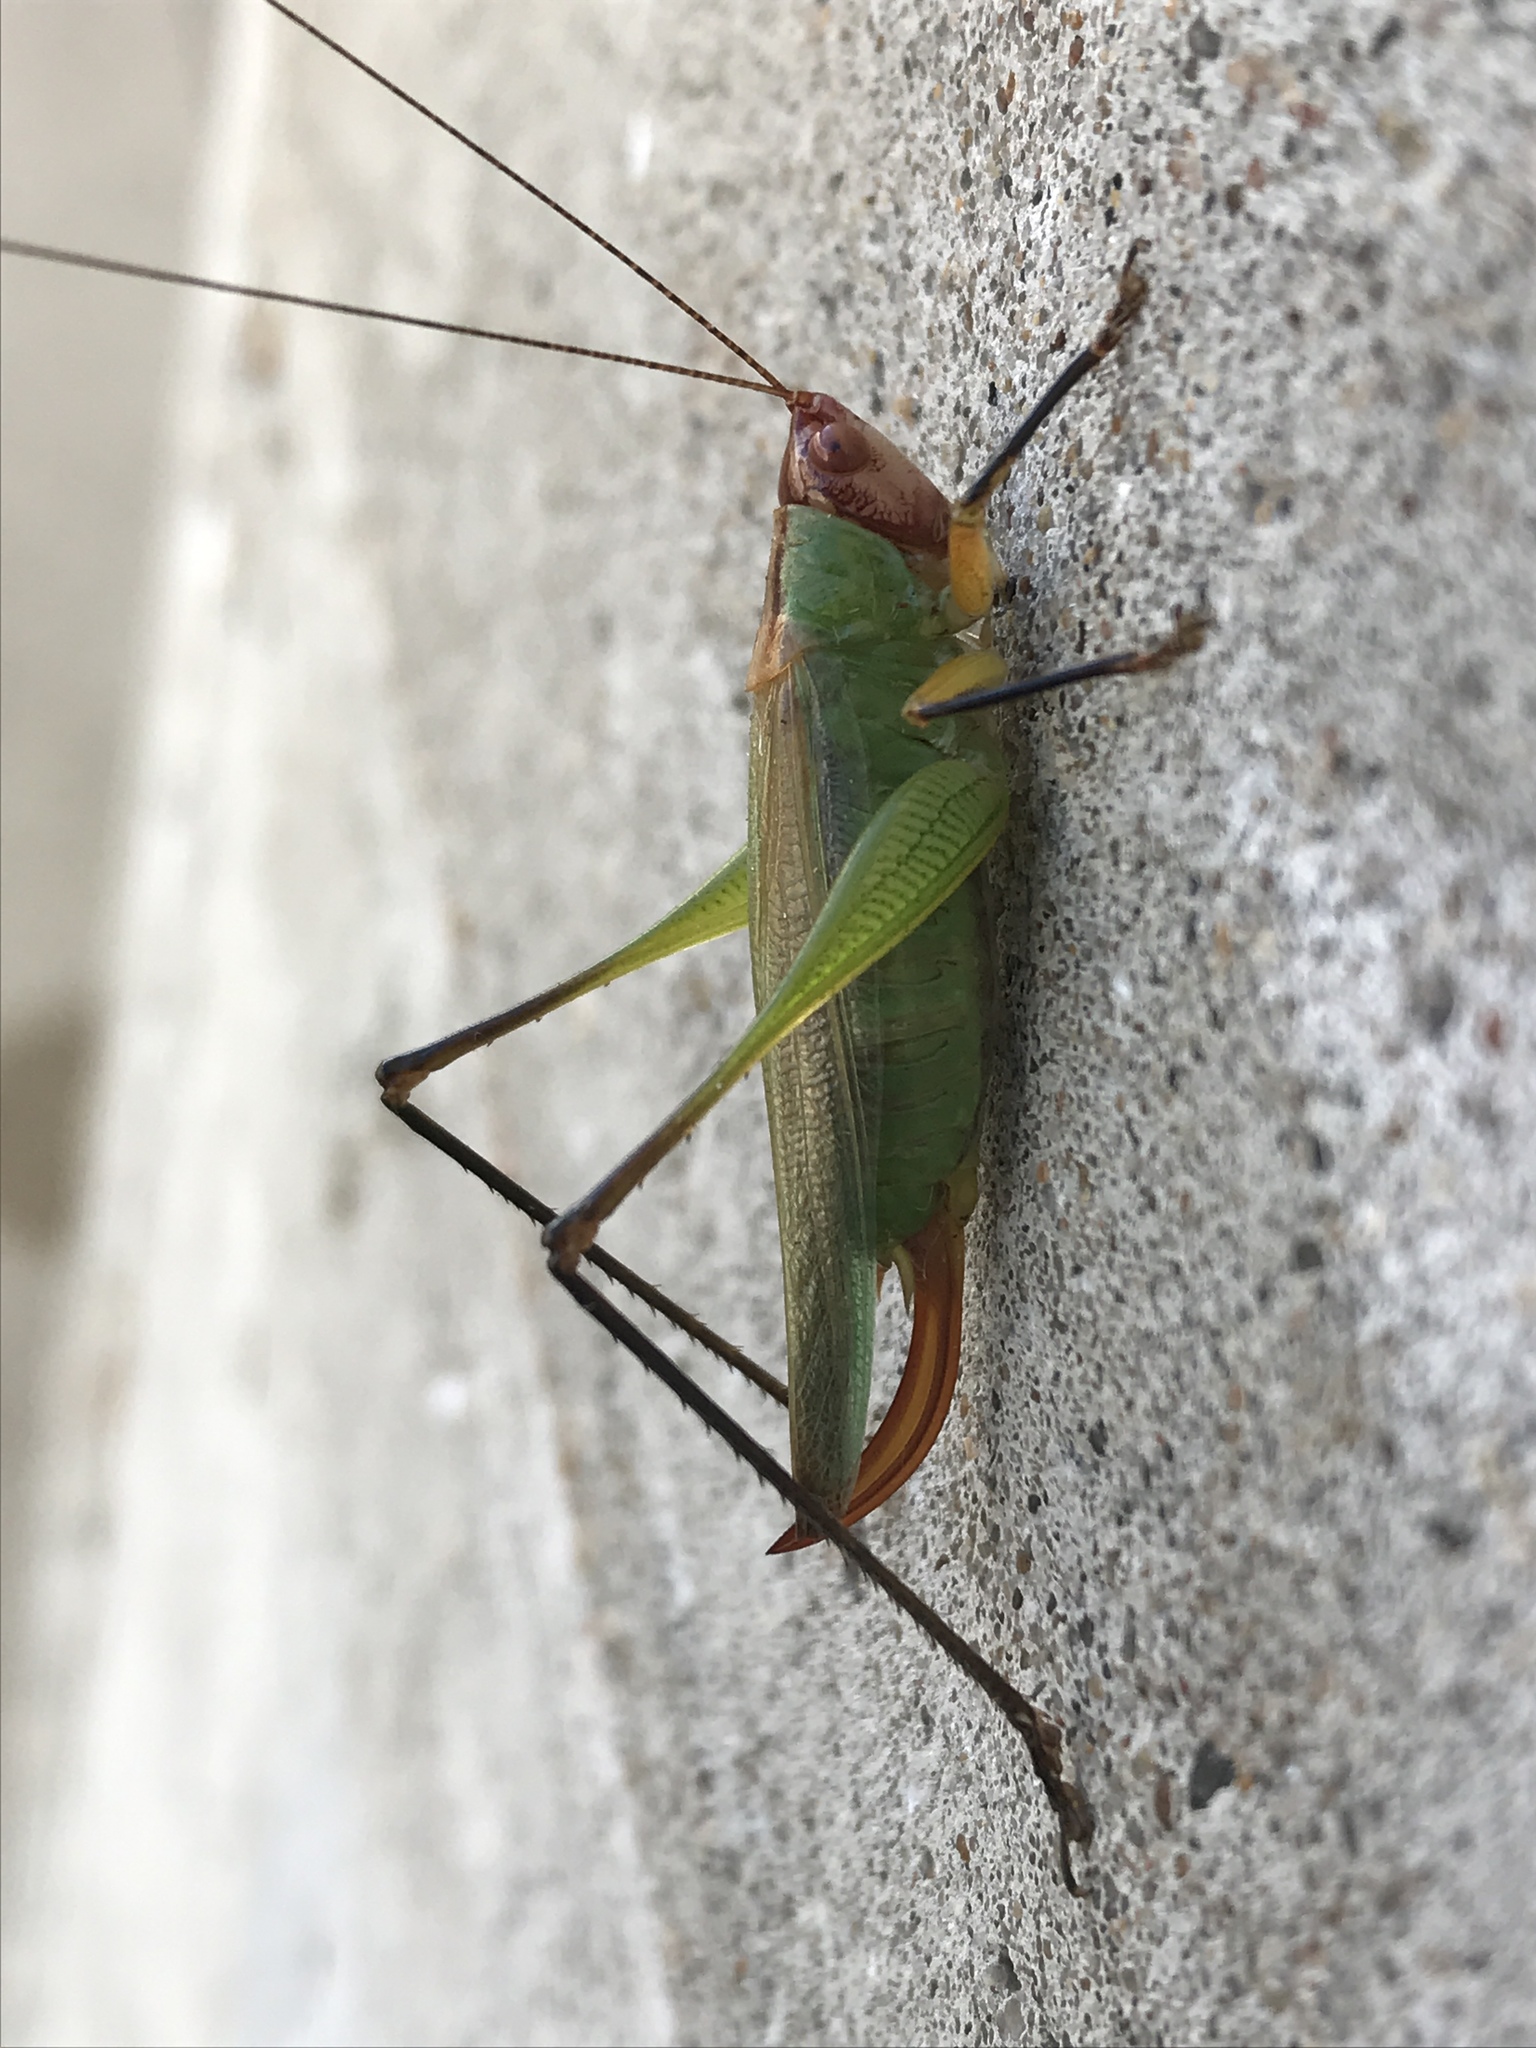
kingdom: Animalia
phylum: Arthropoda
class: Insecta
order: Orthoptera
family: Tettigoniidae
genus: Orchelimum
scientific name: Orchelimum nigripes
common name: Black-legged meadow katydid
